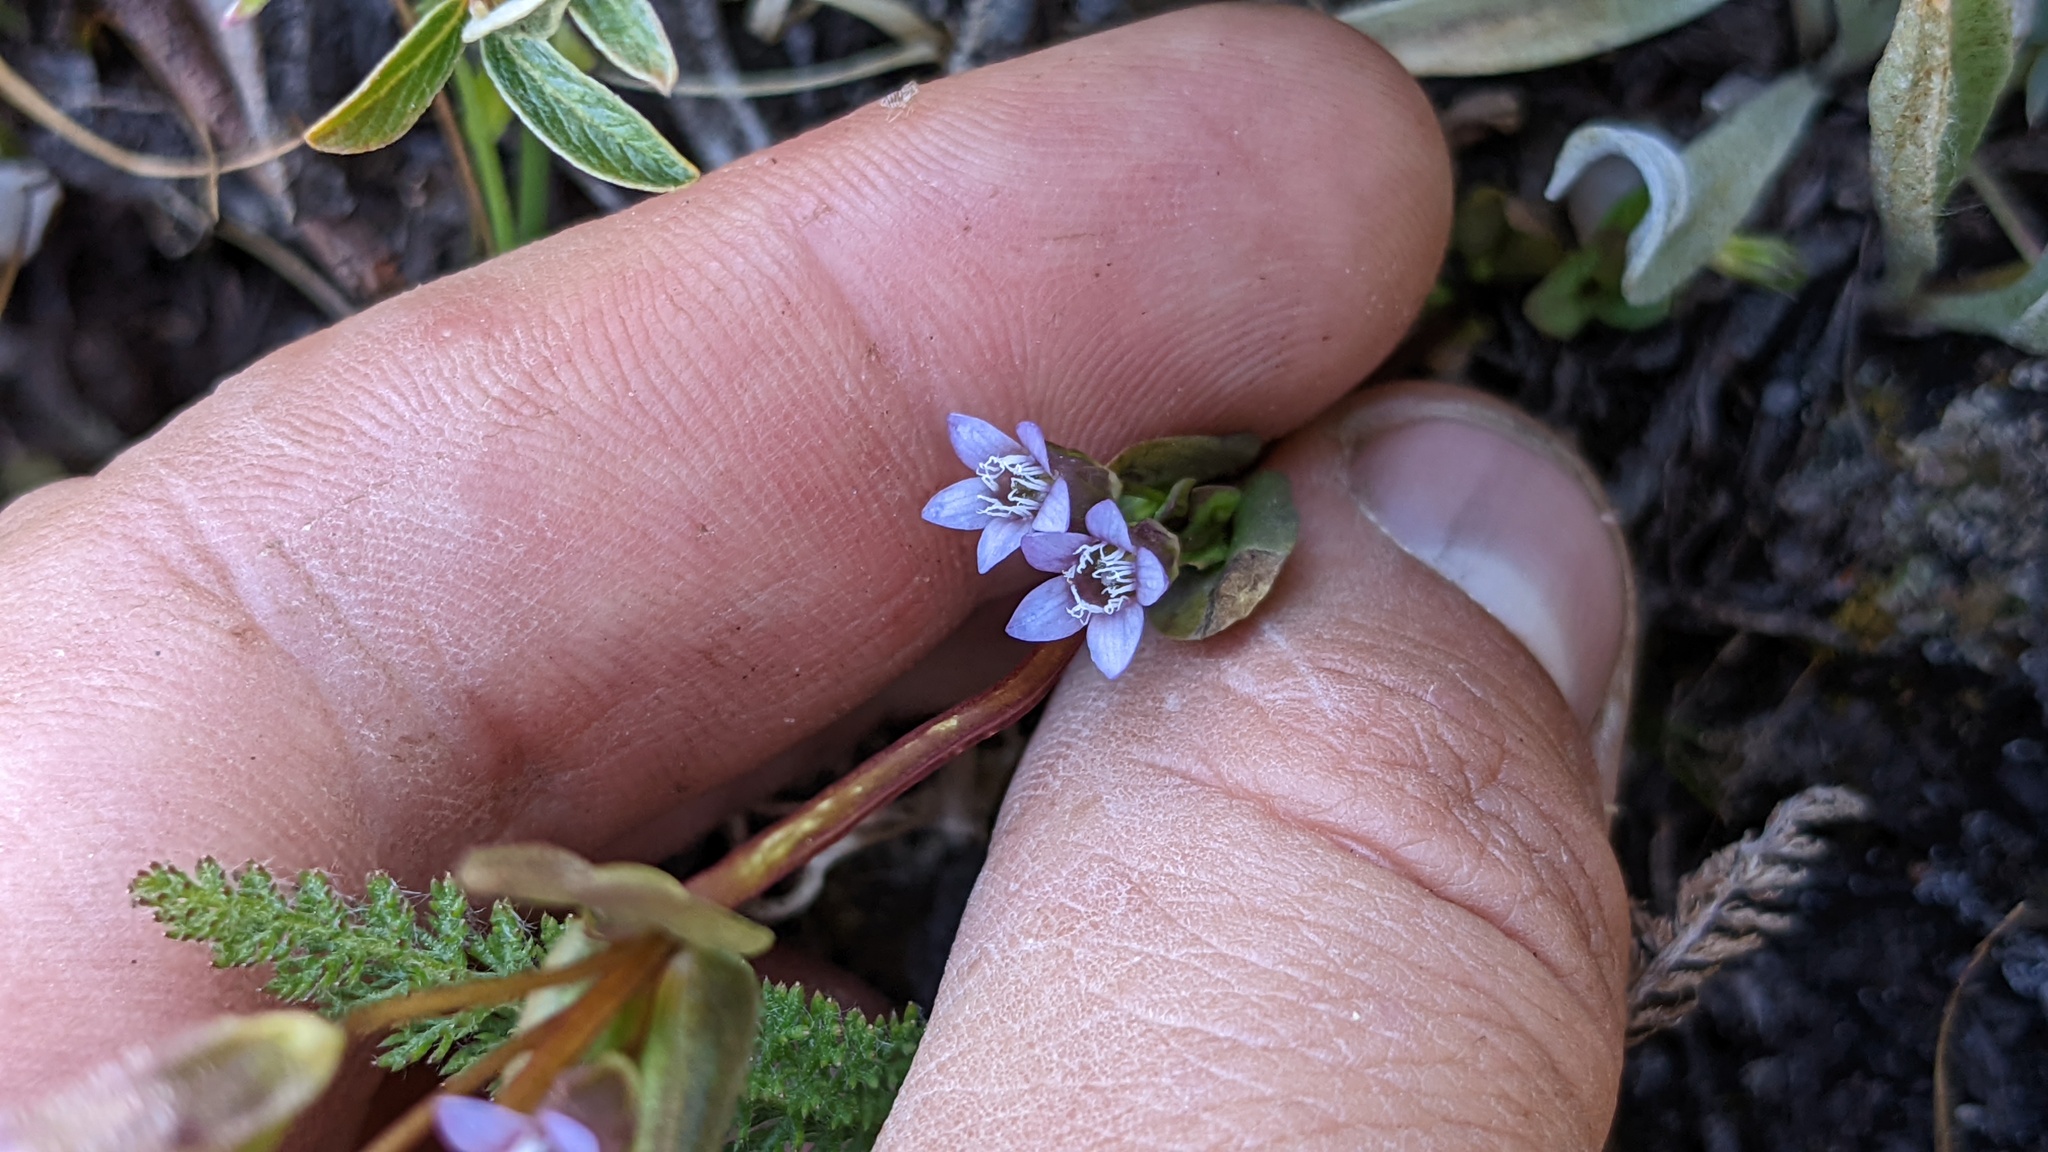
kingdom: Plantae
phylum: Tracheophyta
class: Magnoliopsida
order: Gentianales
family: Gentianaceae
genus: Gentianella
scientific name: Gentianella amarella
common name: Autumn gentian
